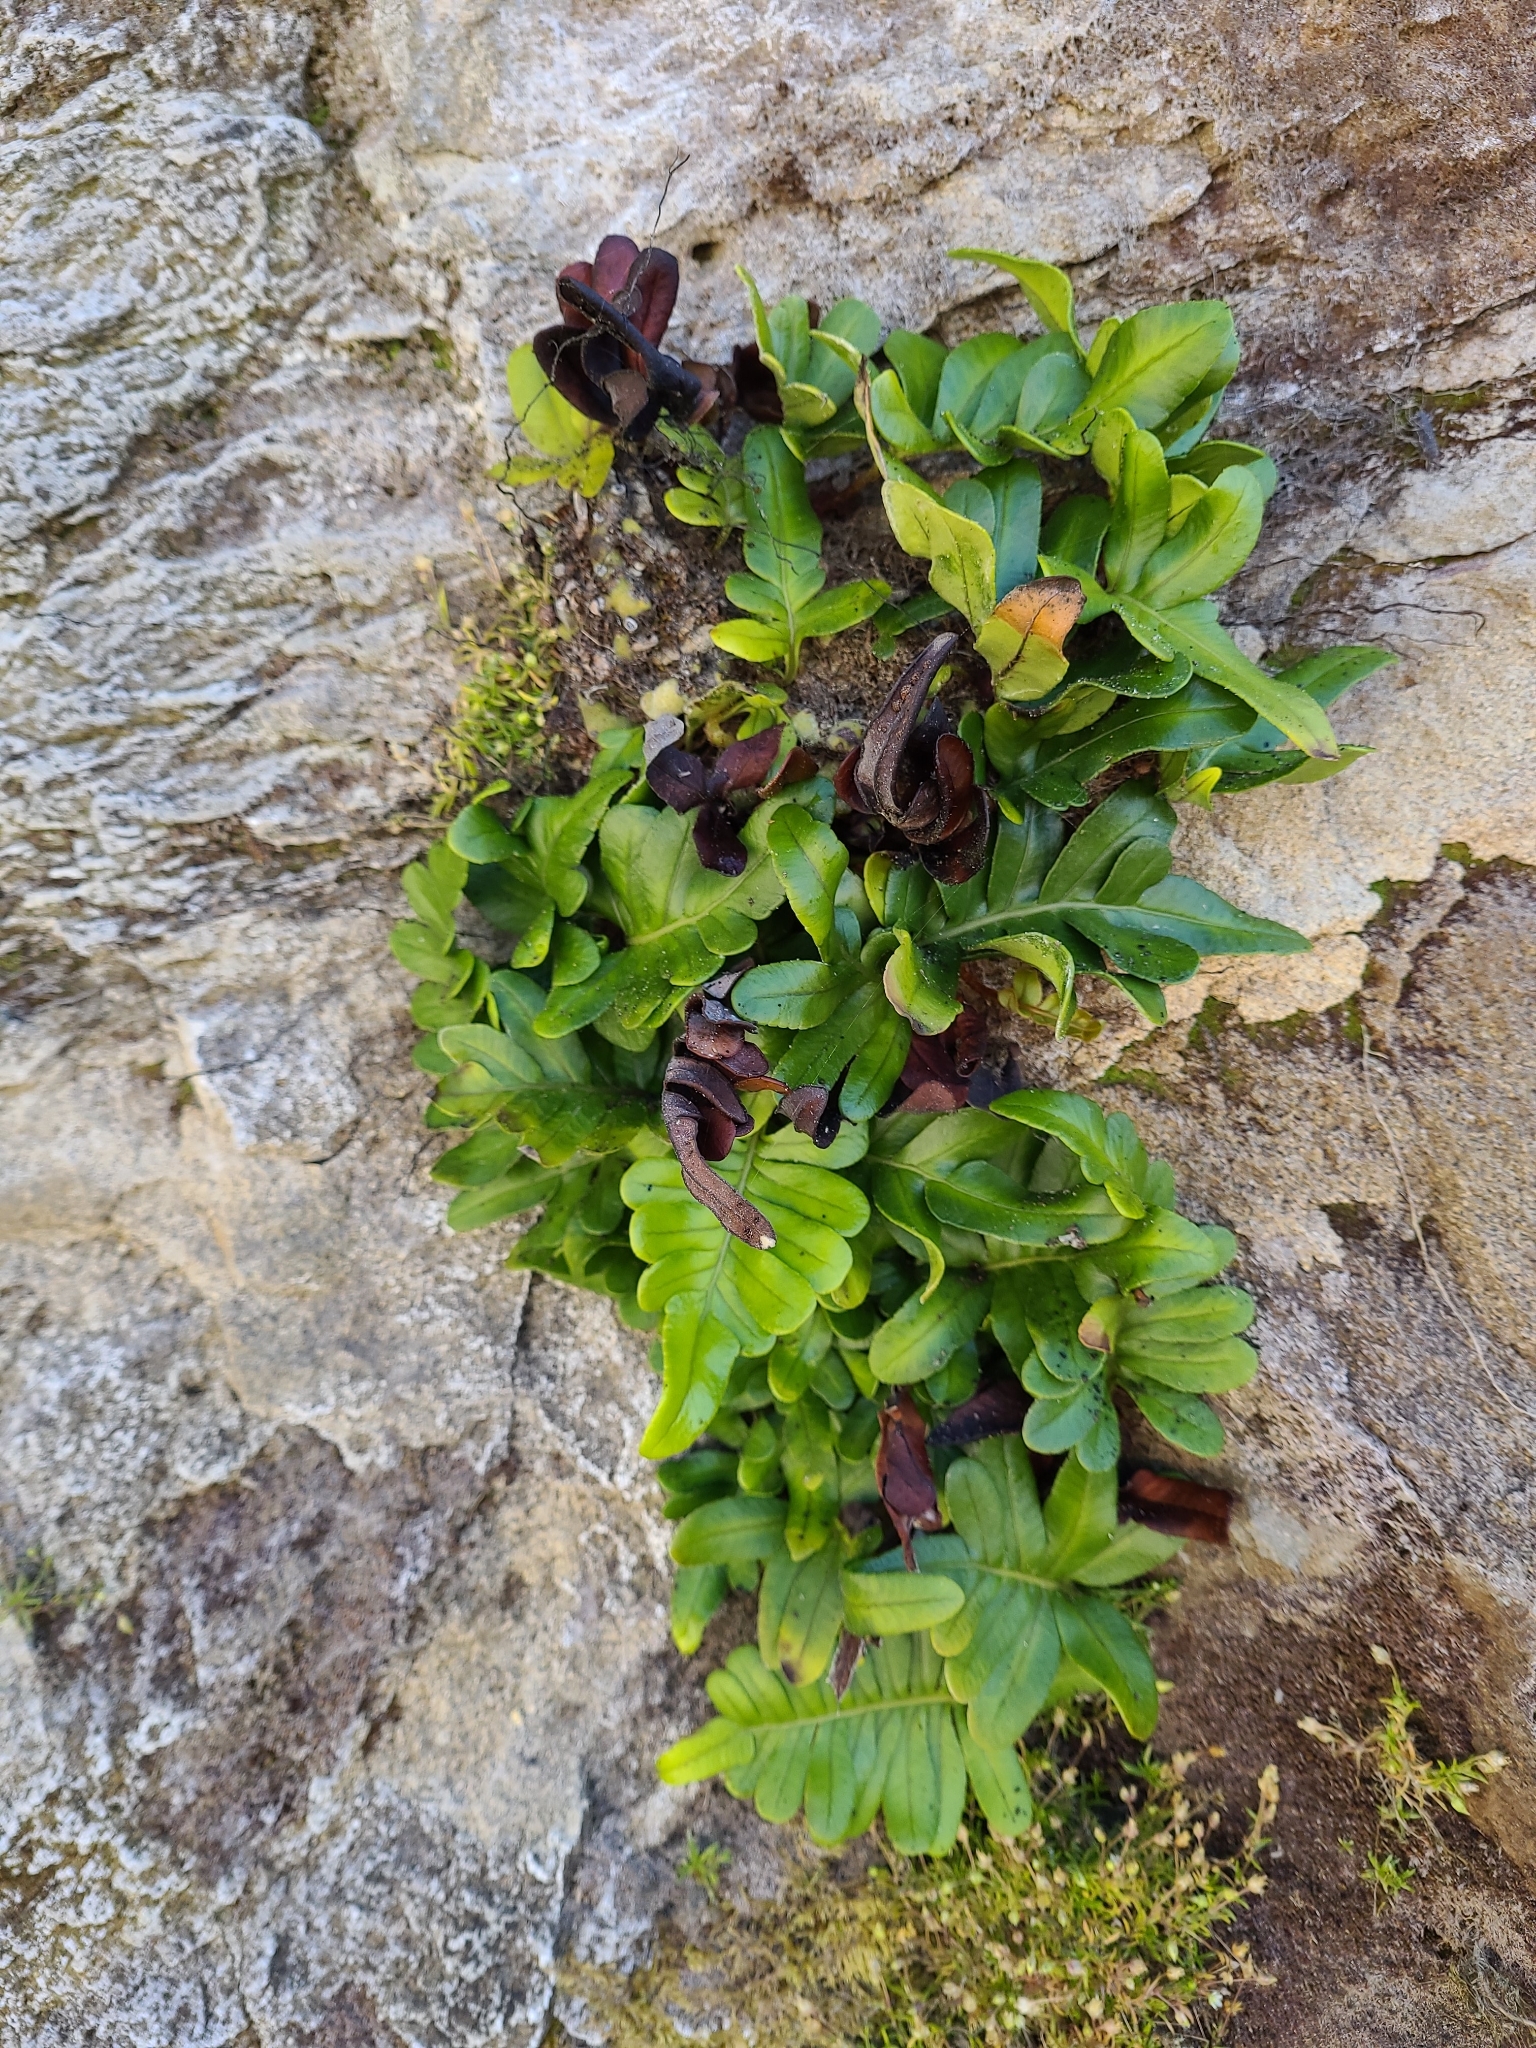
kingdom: Plantae
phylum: Tracheophyta
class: Polypodiopsida
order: Polypodiales
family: Polypodiaceae
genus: Polypodium
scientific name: Polypodium scouleri
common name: Scouler's polypody
